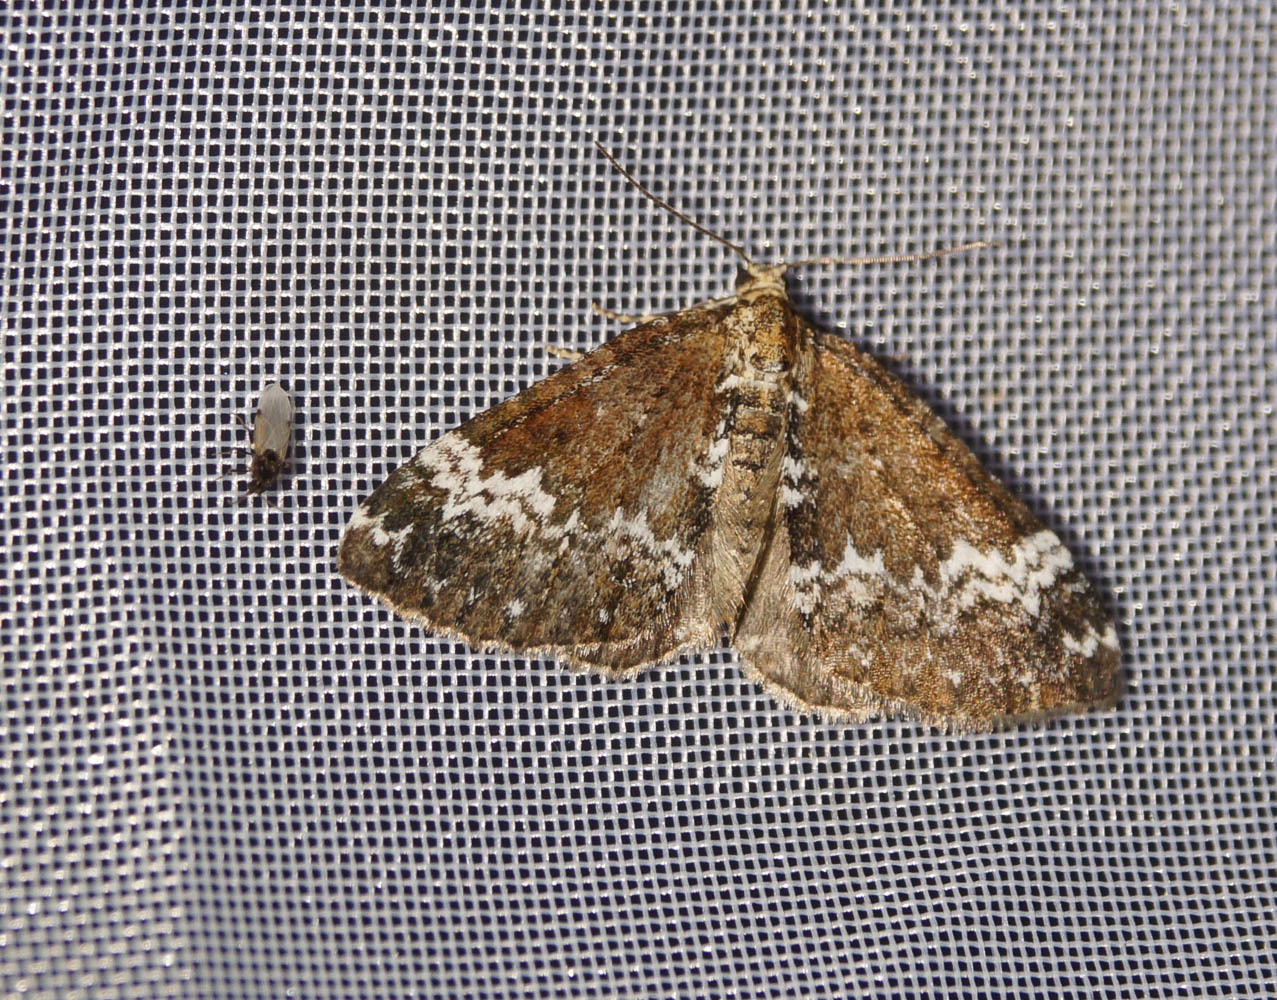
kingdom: Animalia
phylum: Arthropoda
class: Insecta
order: Lepidoptera
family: Geometridae
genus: Perizoma
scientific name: Perizoma alchemillata
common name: Small rivulet
